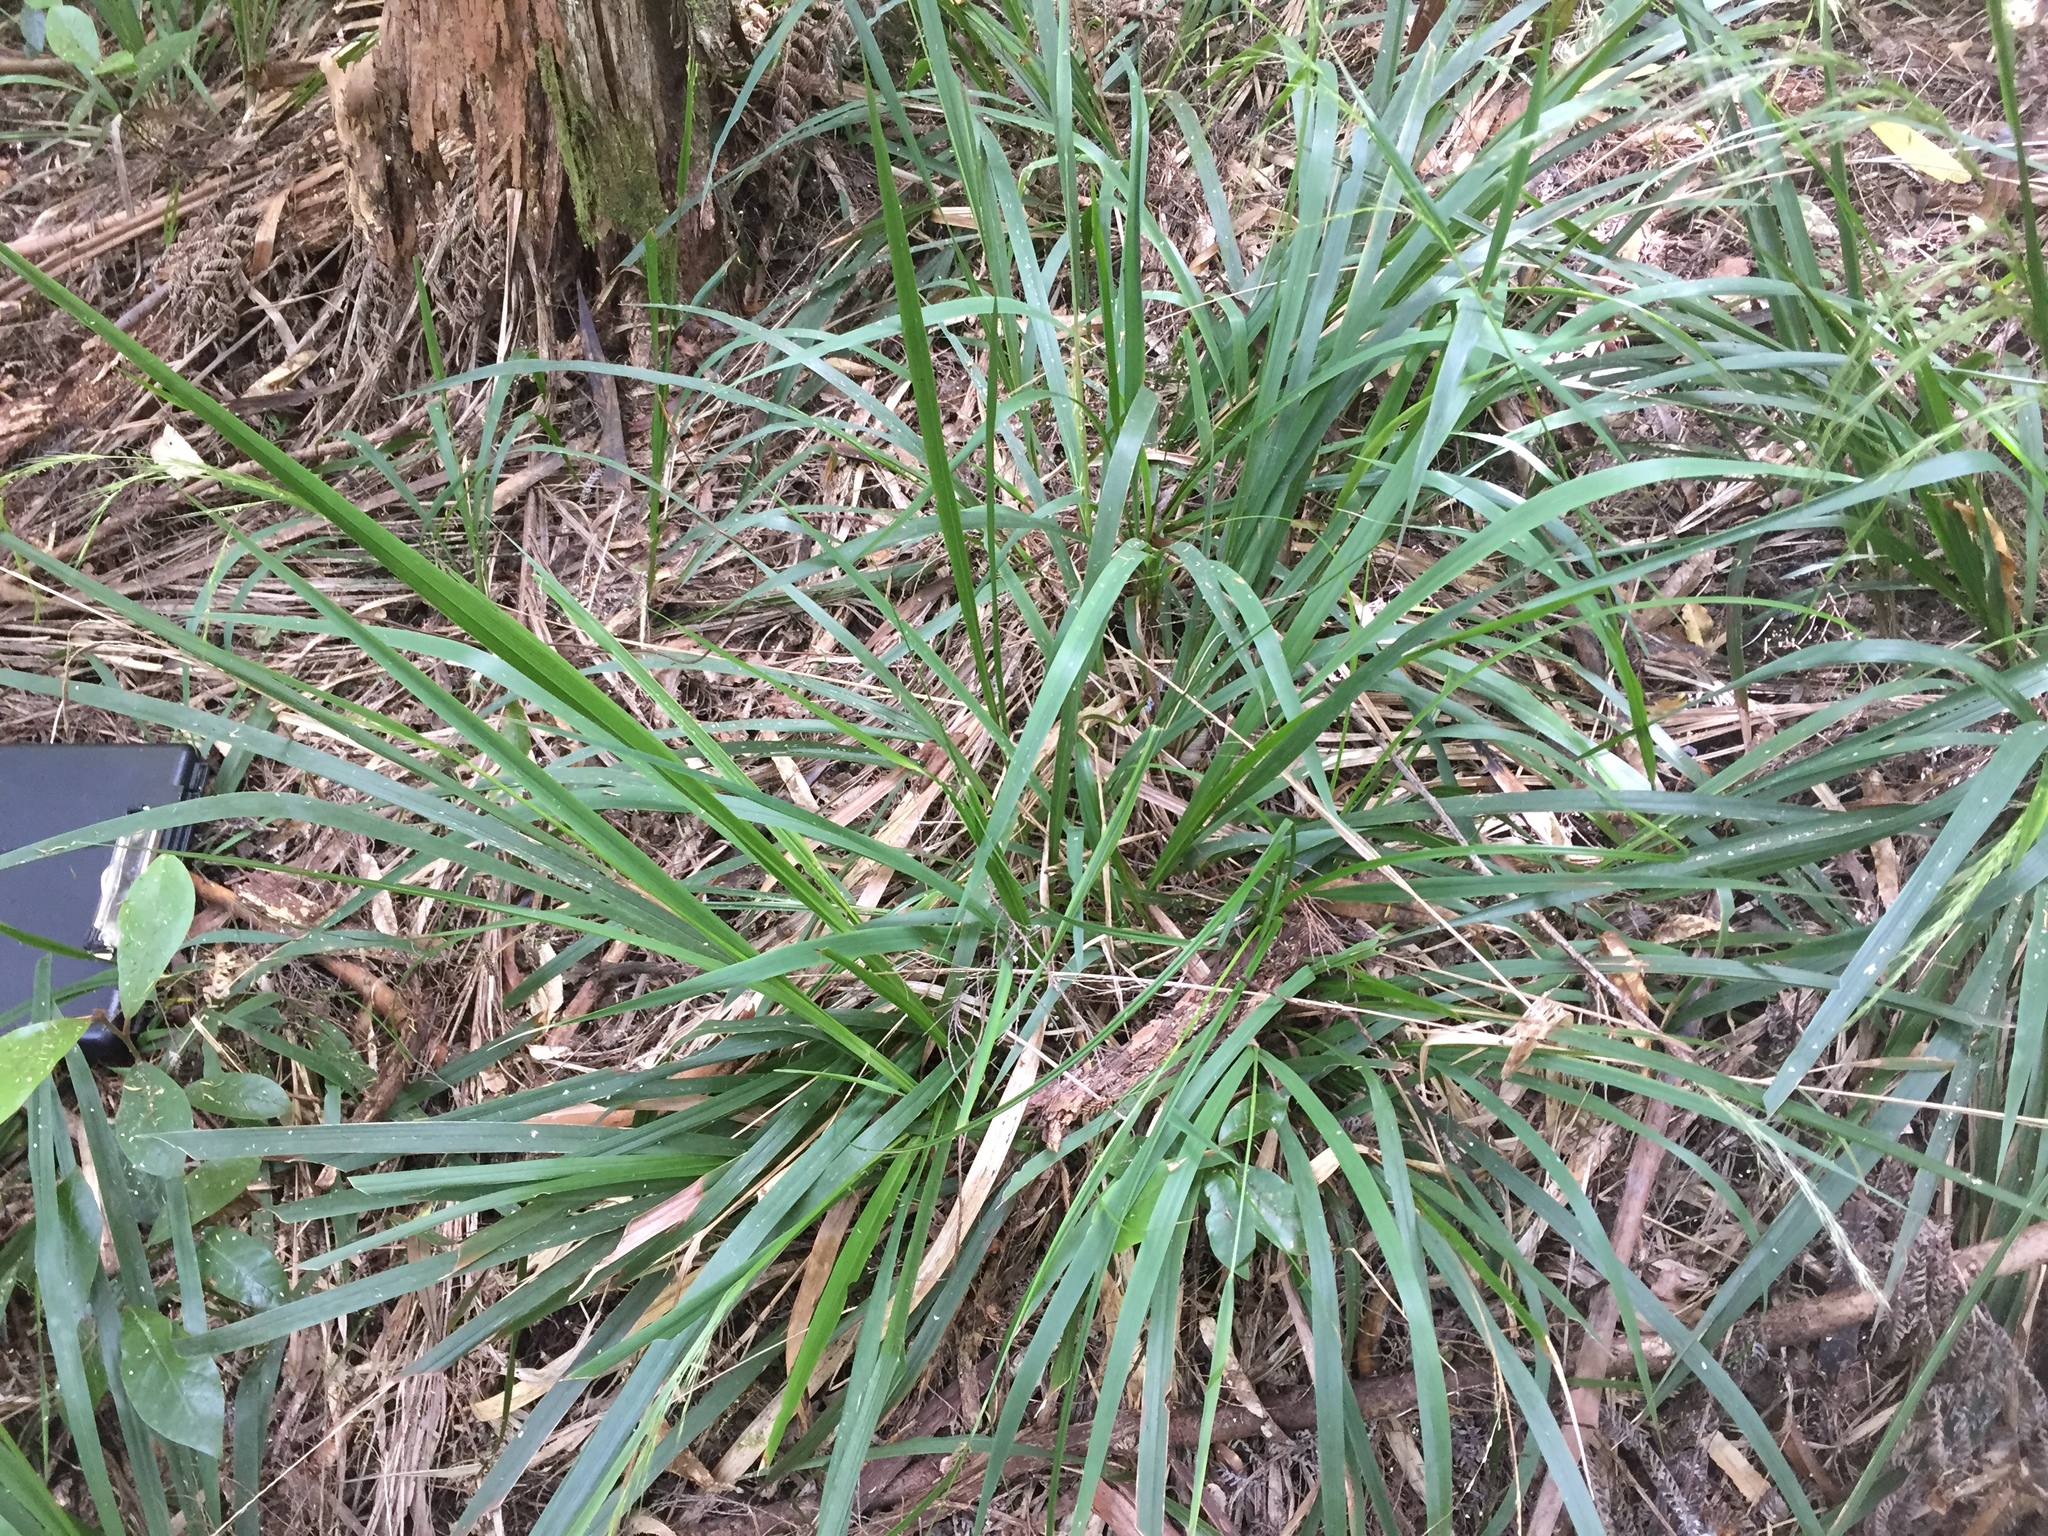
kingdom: Plantae
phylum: Tracheophyta
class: Liliopsida
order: Poales
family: Poaceae
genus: Ehrharta
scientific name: Ehrharta diplax
